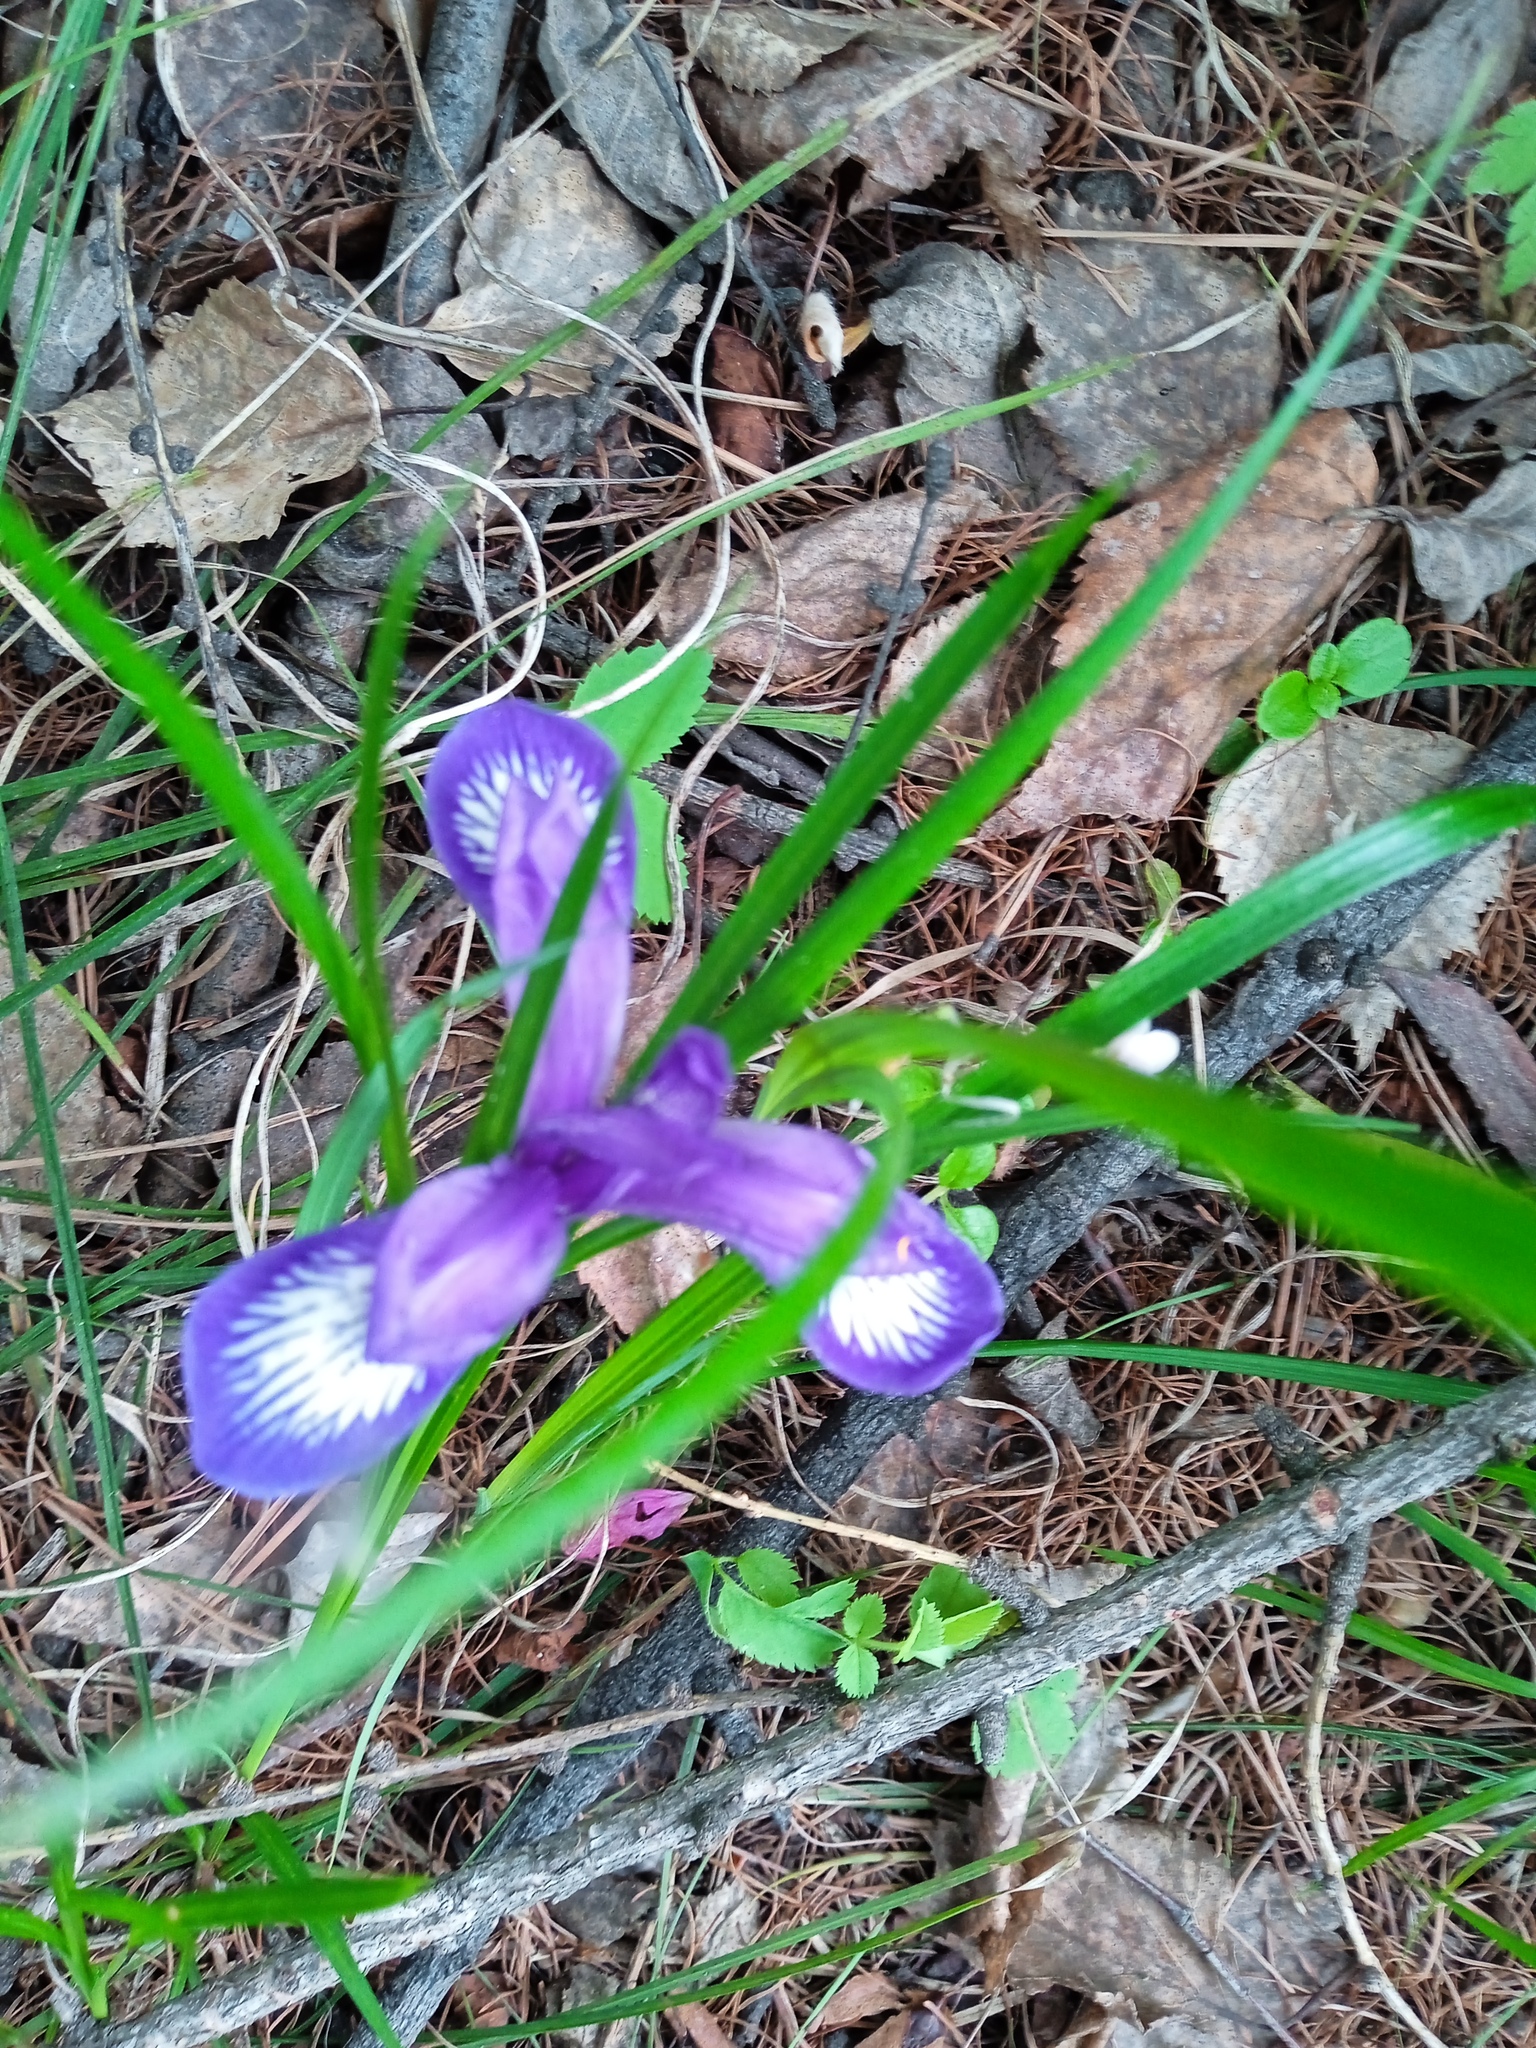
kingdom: Plantae
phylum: Tracheophyta
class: Liliopsida
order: Asparagales
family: Iridaceae
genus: Iris
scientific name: Iris ruthenica
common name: Purple-bract iris
